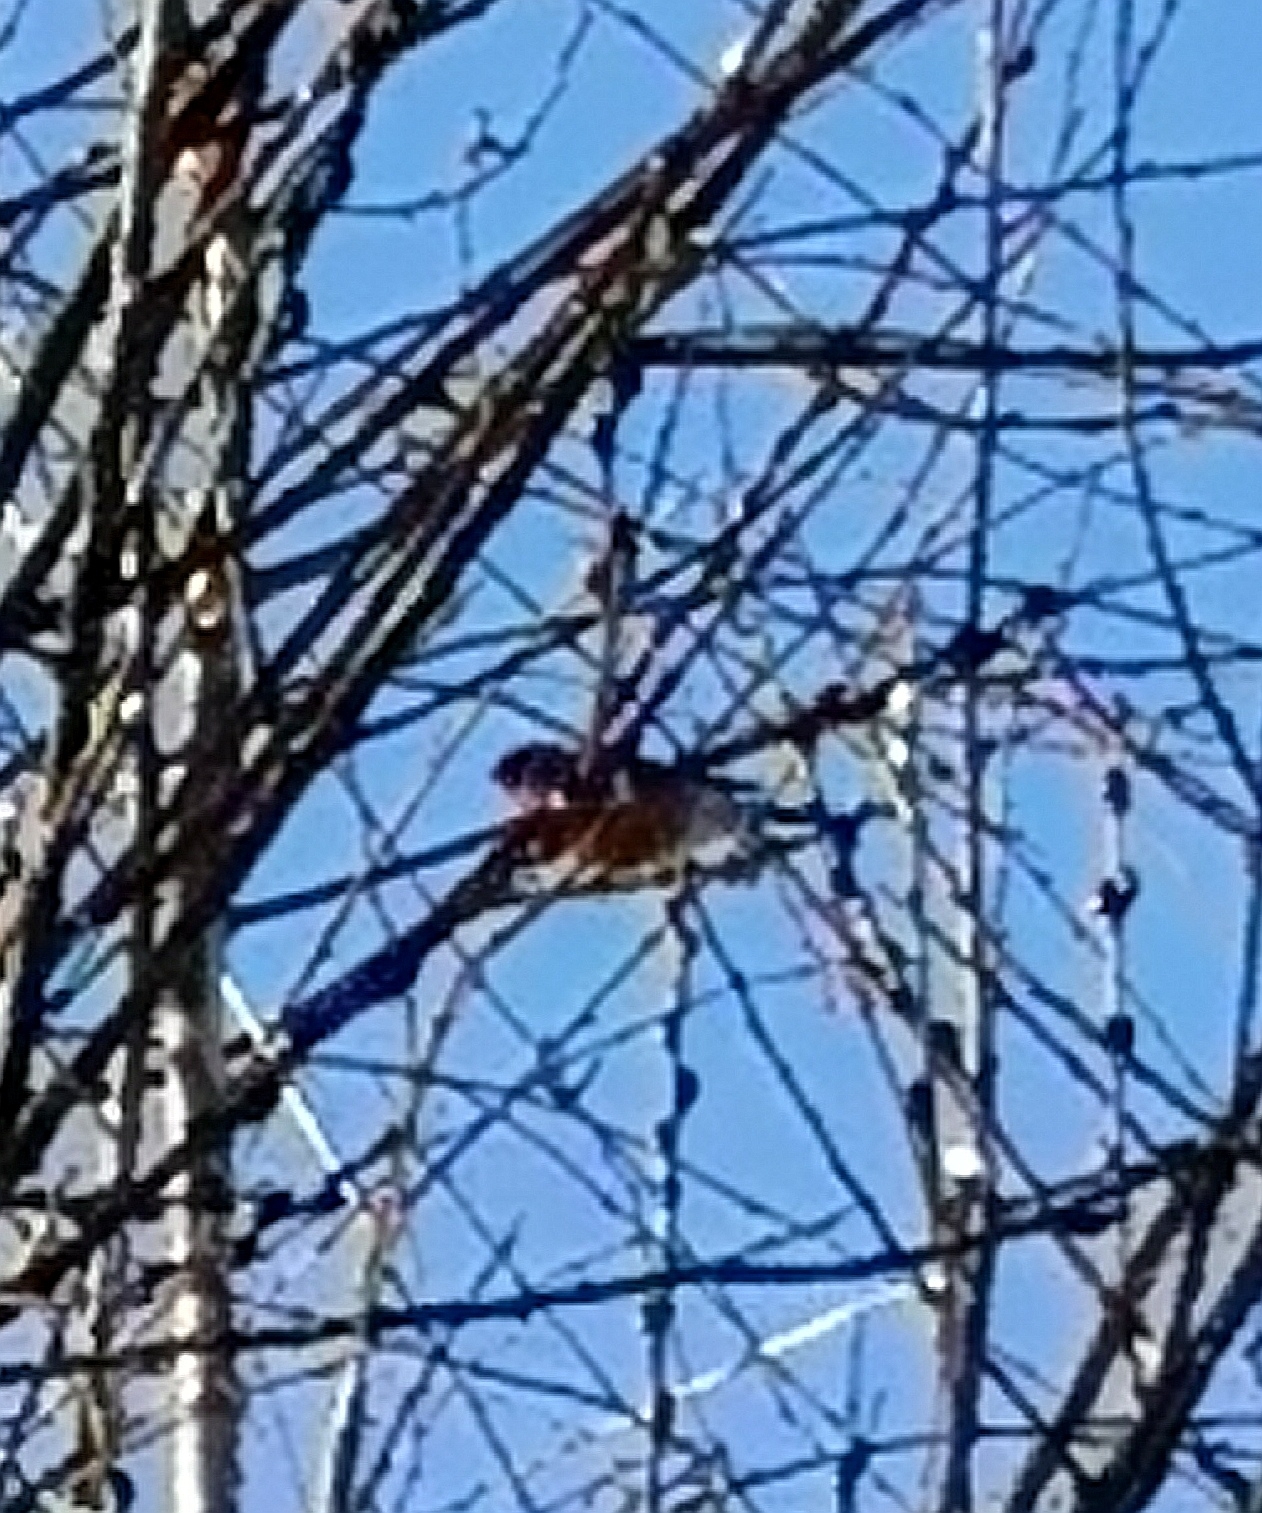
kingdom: Animalia
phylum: Chordata
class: Aves
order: Passeriformes
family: Fringillidae
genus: Pyrrhula
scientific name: Pyrrhula pyrrhula
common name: Eurasian bullfinch
